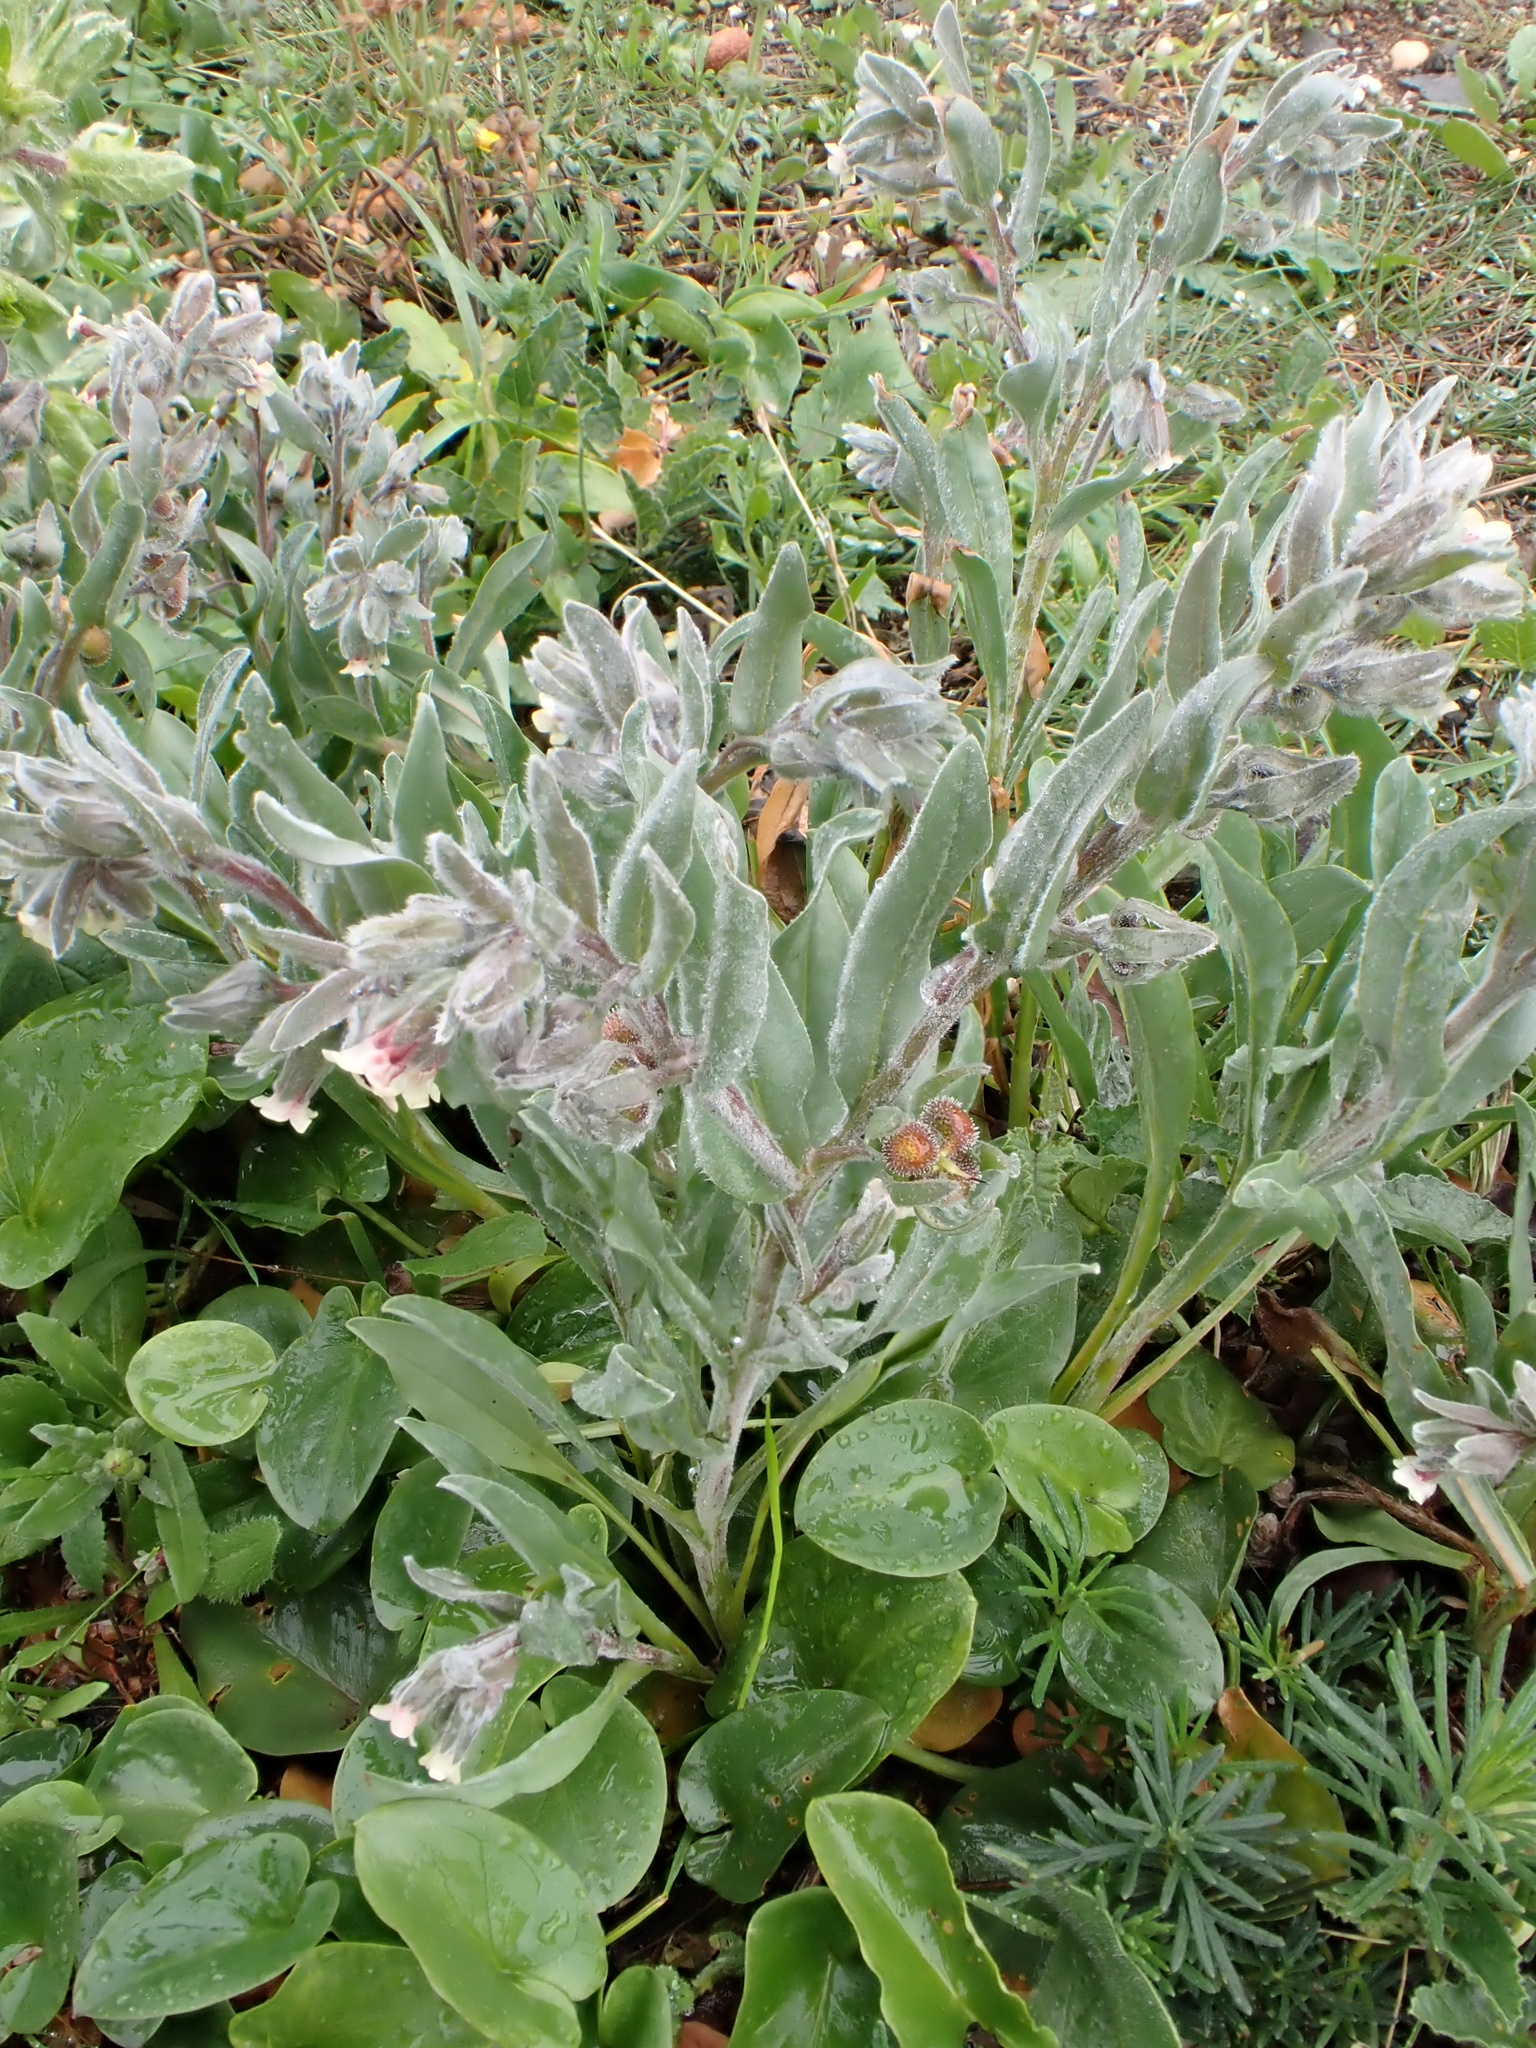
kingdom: Plantae
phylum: Tracheophyta
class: Magnoliopsida
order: Boraginales
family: Boraginaceae
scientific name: Boraginaceae
